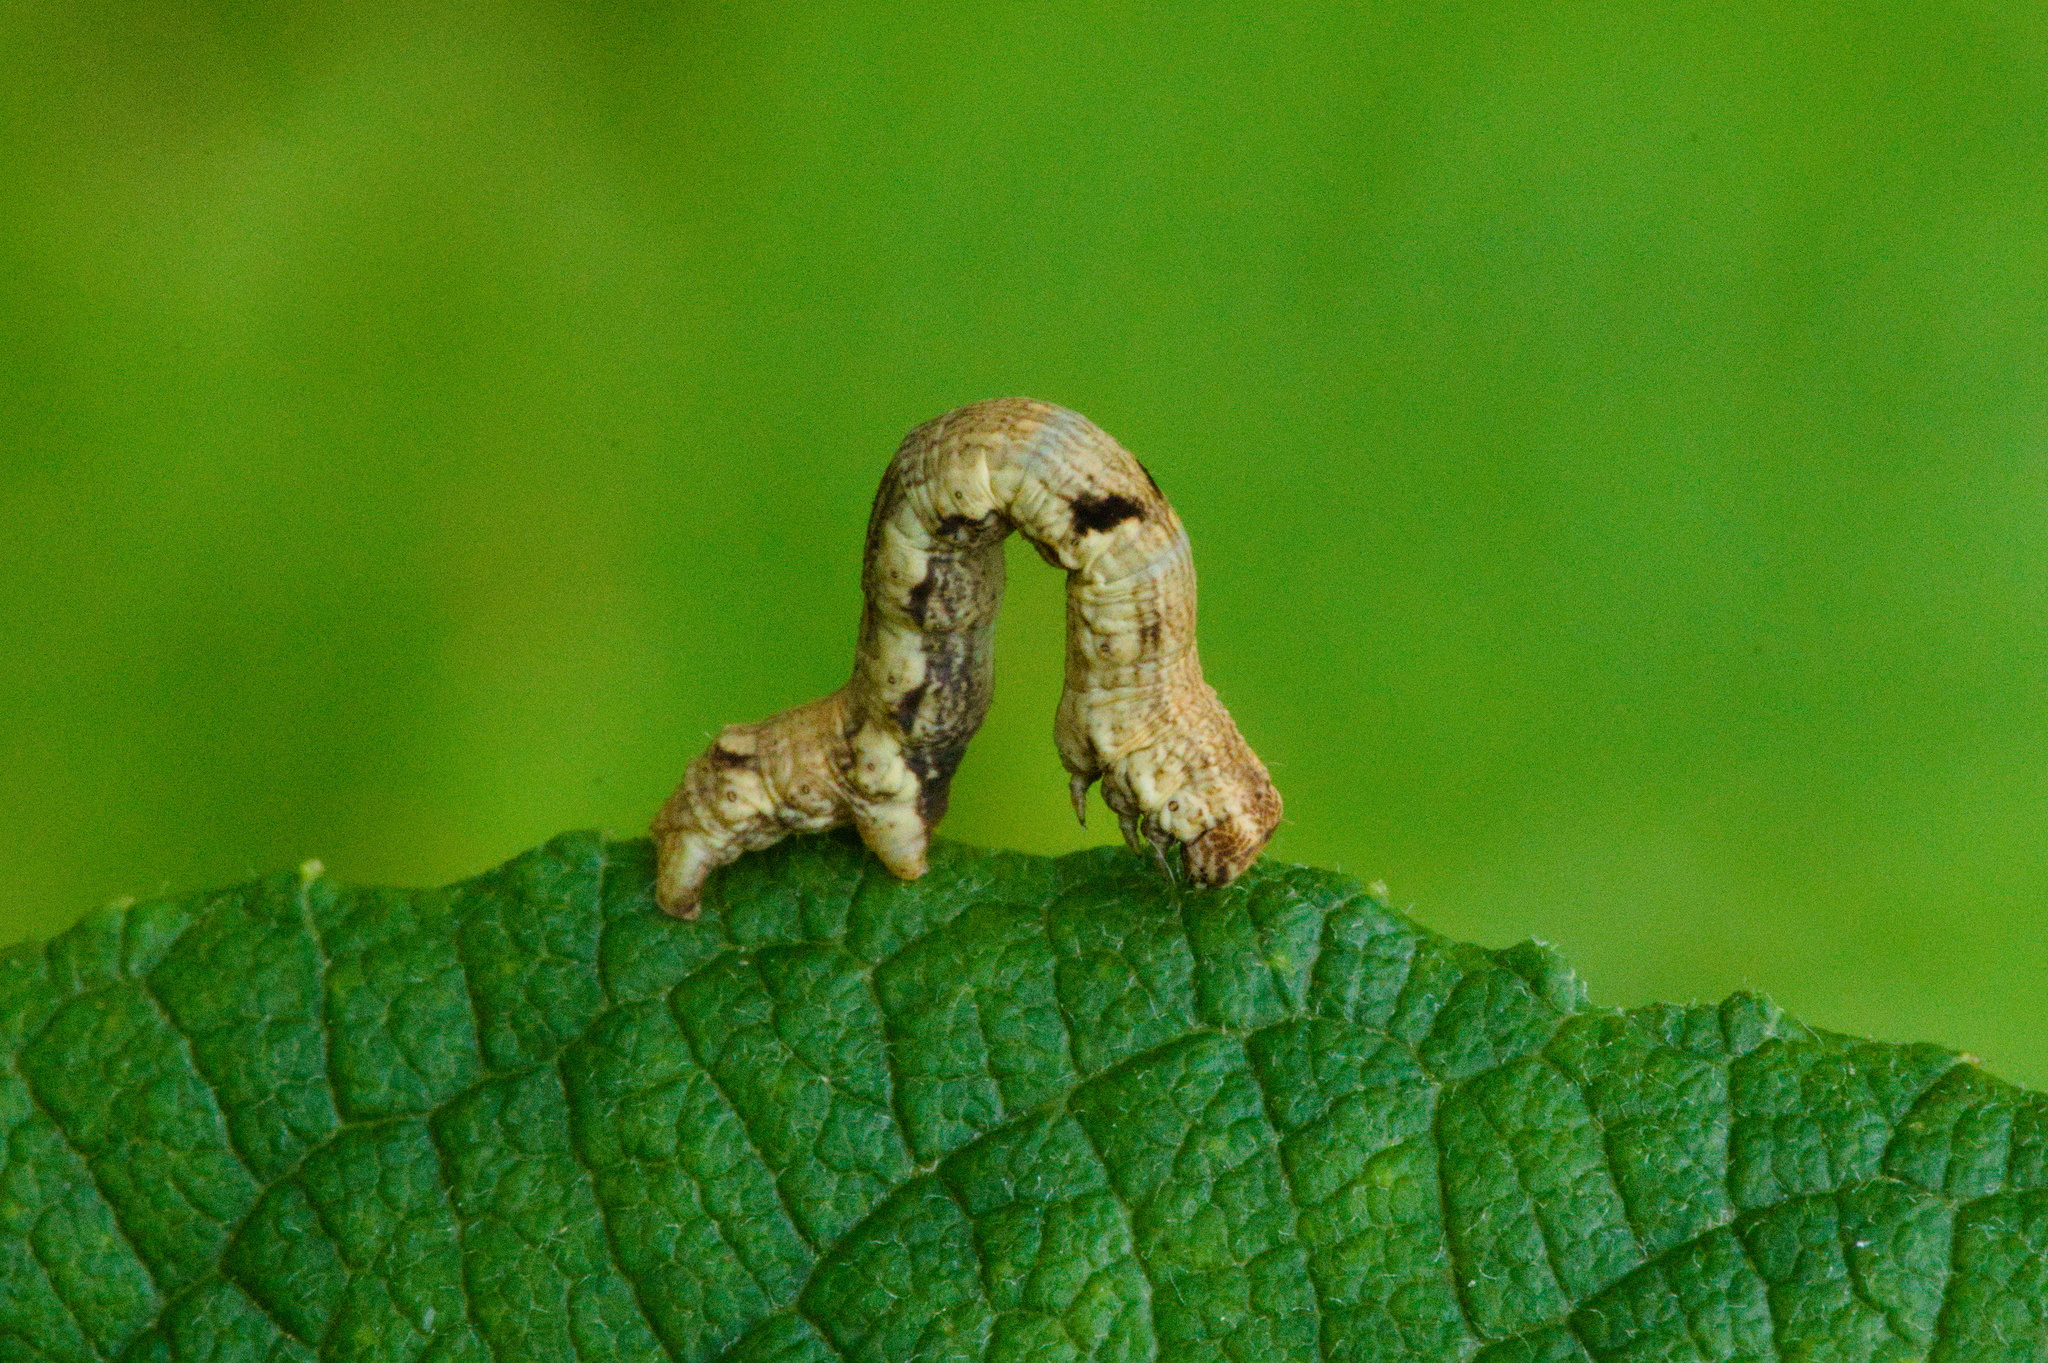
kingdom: Animalia
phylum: Arthropoda
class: Insecta
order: Lepidoptera
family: Geometridae
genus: Ectropis
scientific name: Ectropis crepuscularia
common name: Engrailed
